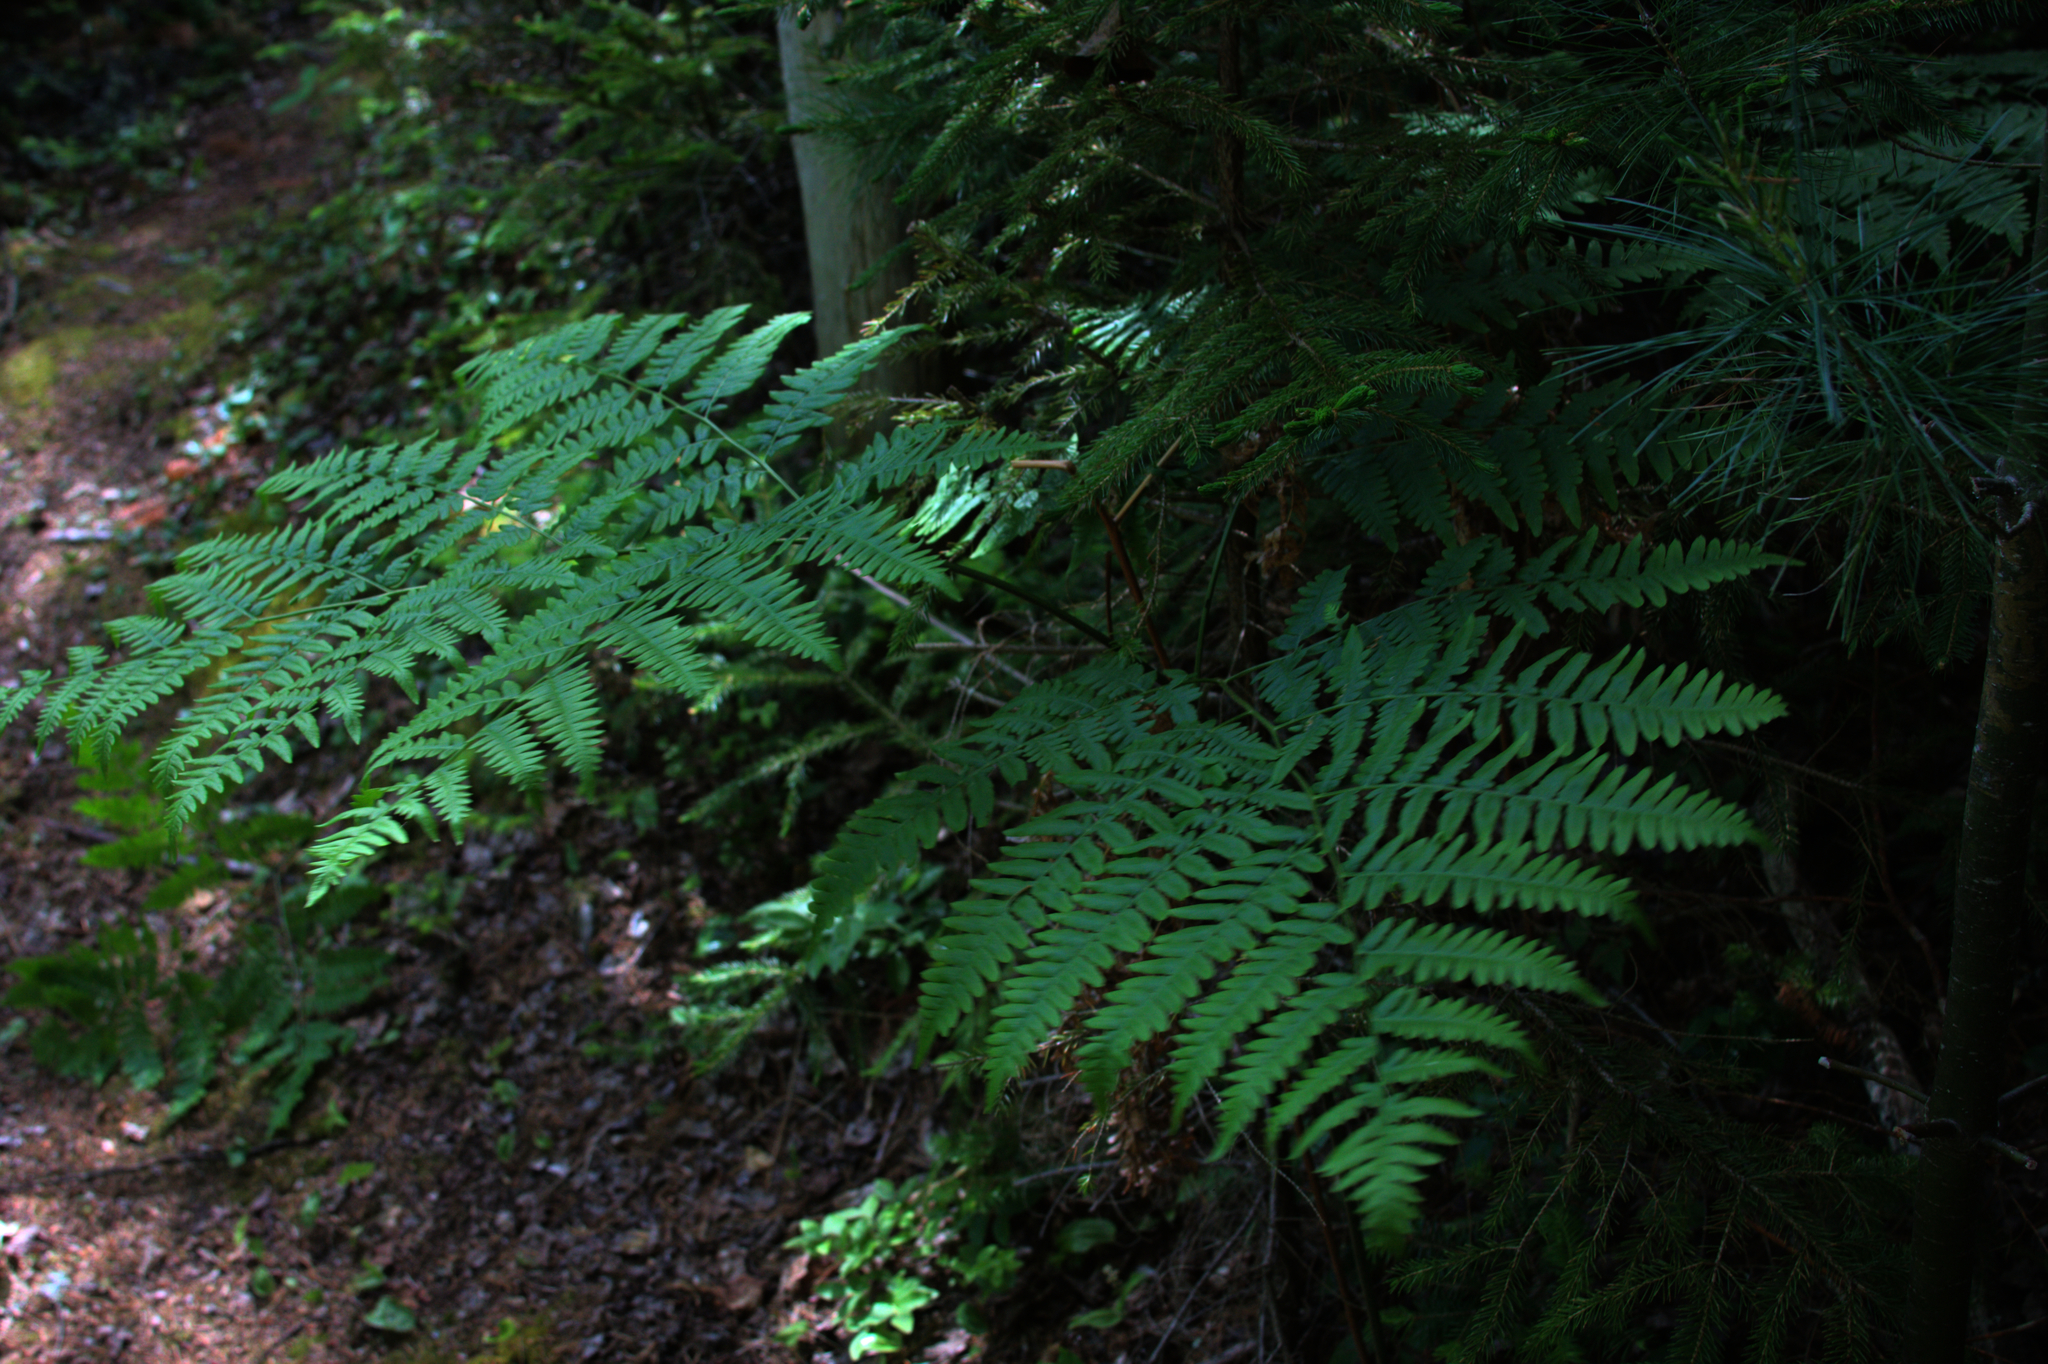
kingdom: Plantae
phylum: Tracheophyta
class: Polypodiopsida
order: Polypodiales
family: Dennstaedtiaceae
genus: Pteridium
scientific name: Pteridium aquilinum
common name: Bracken
